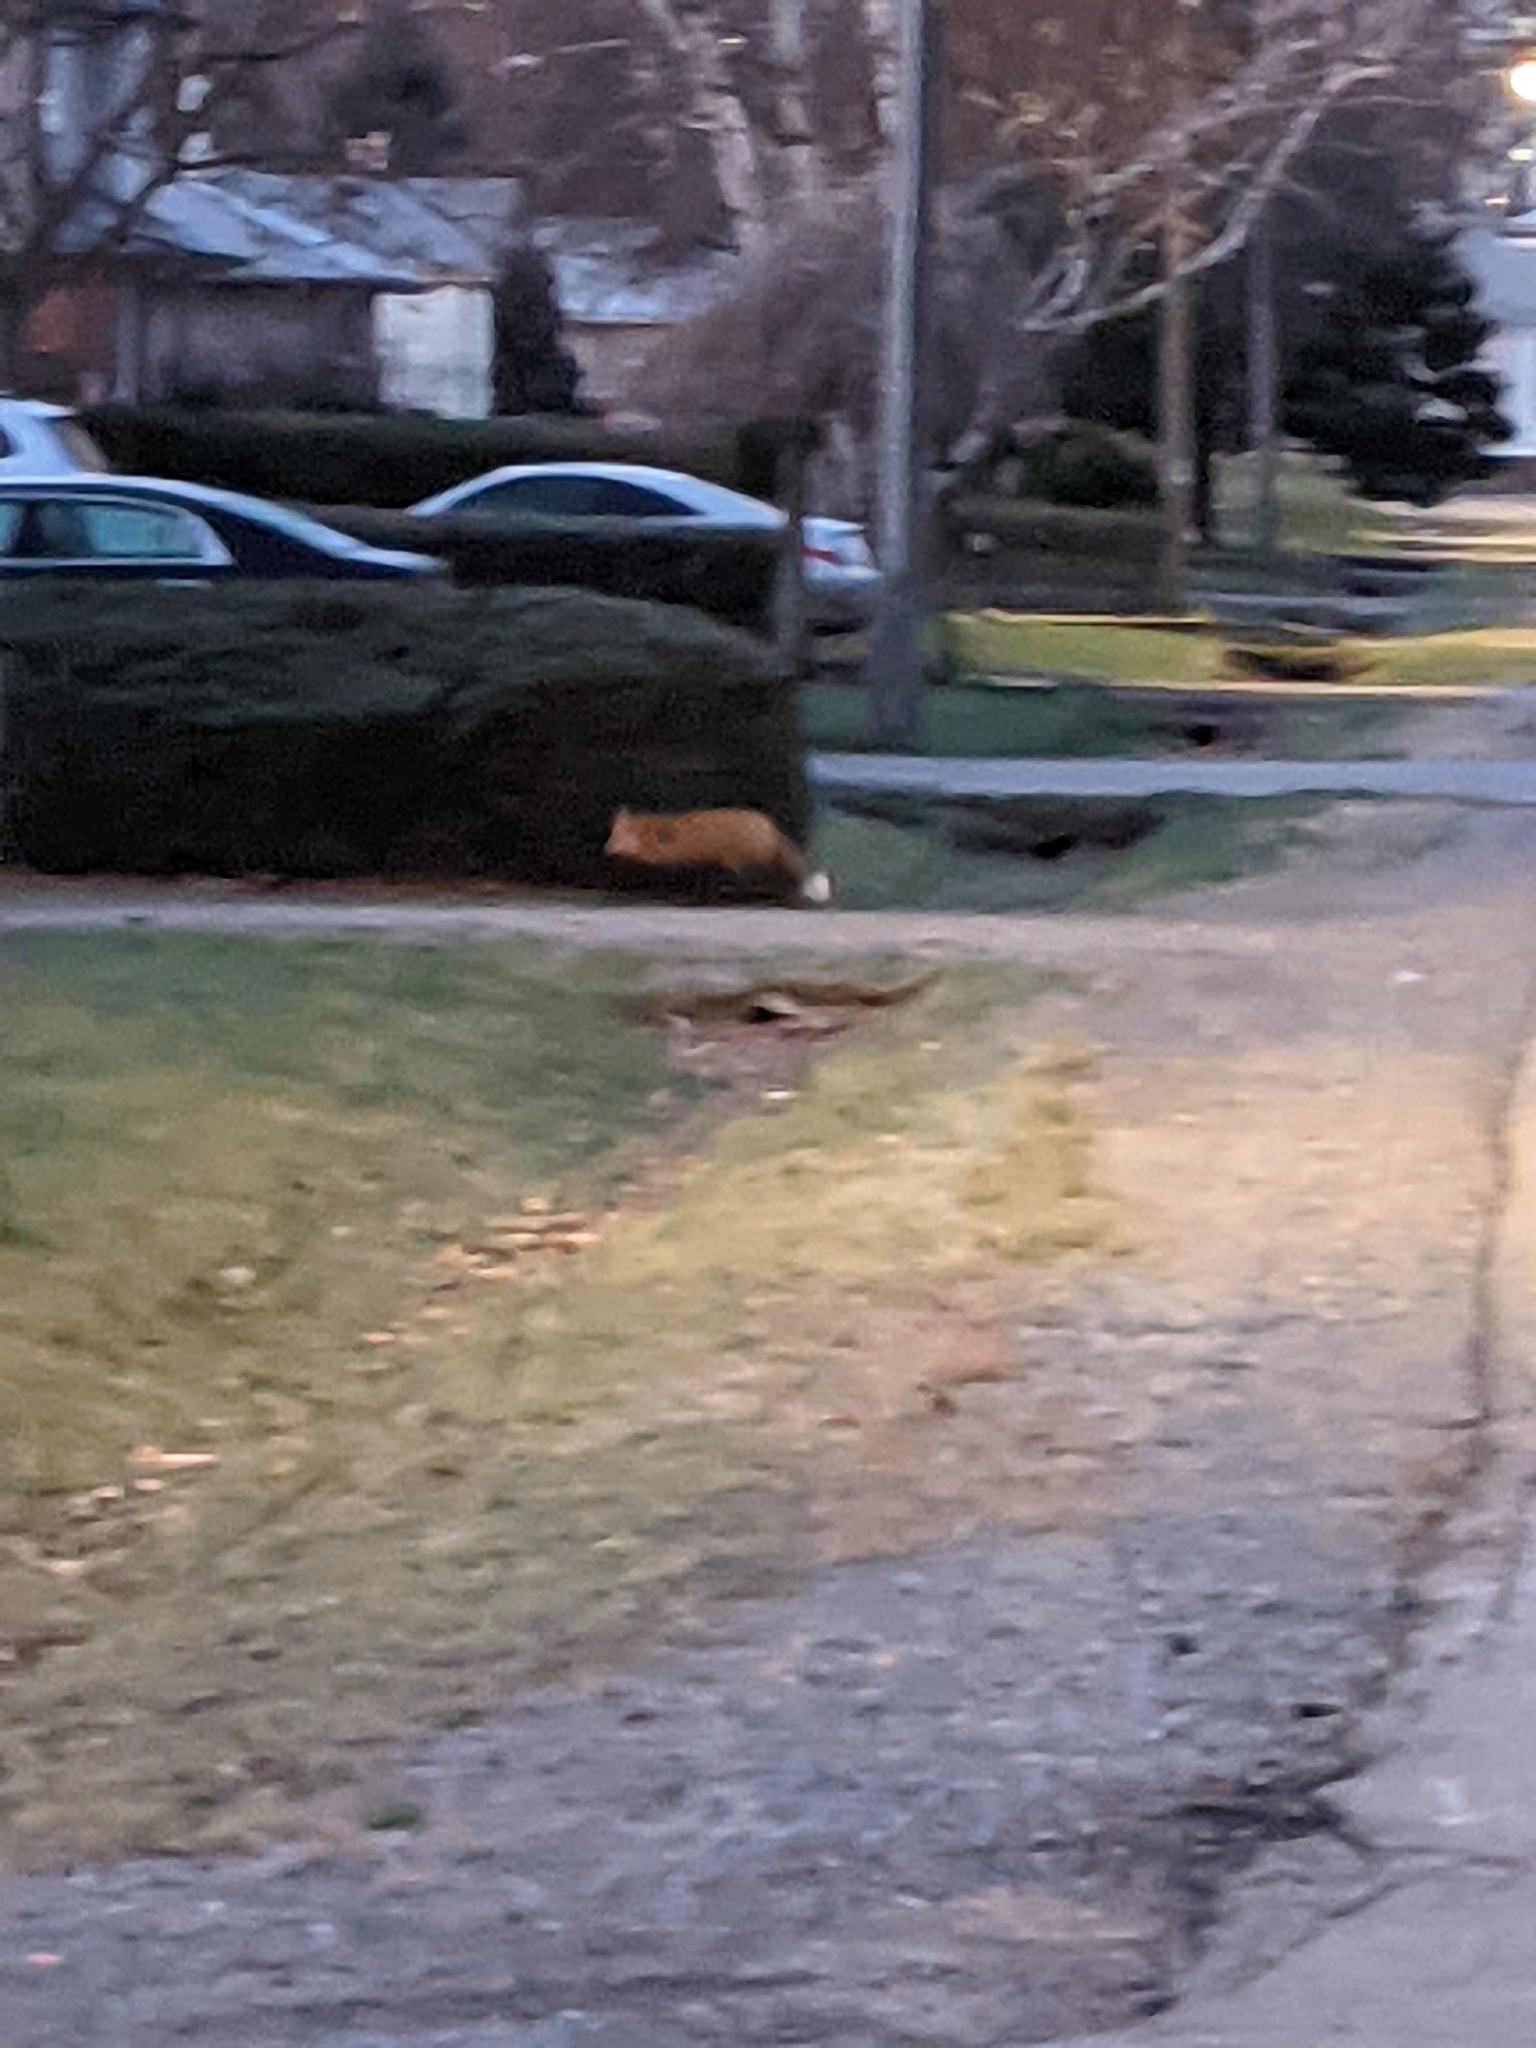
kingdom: Animalia
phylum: Chordata
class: Mammalia
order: Carnivora
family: Canidae
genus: Vulpes
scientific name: Vulpes vulpes
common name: Red fox
